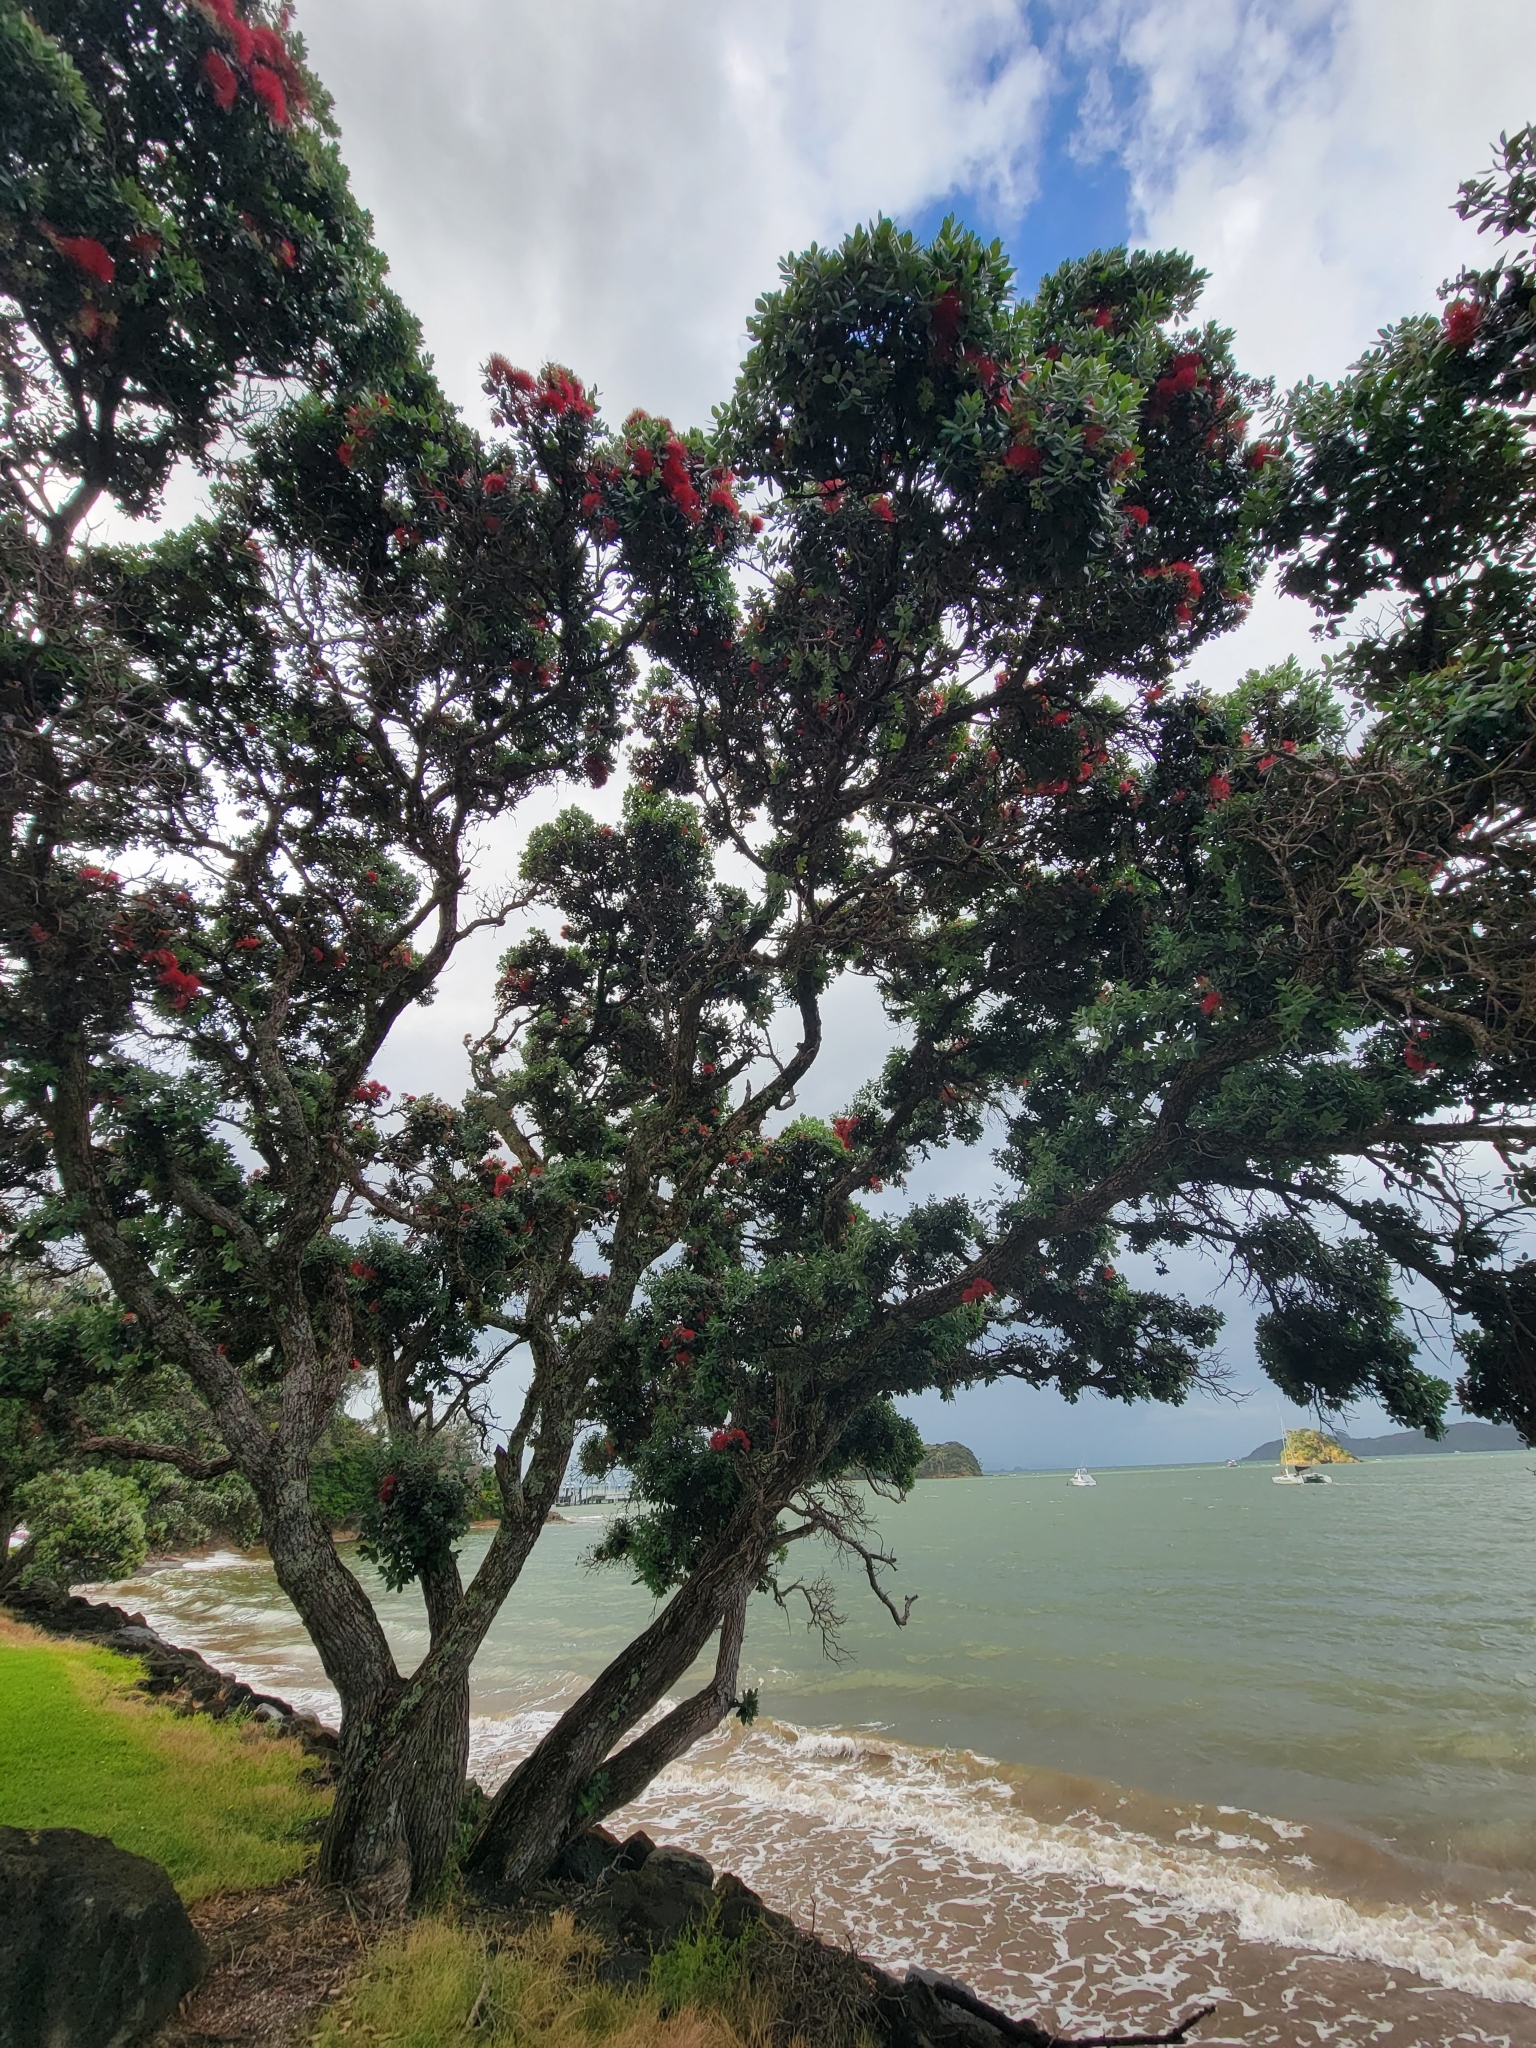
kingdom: Plantae
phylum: Tracheophyta
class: Magnoliopsida
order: Myrtales
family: Myrtaceae
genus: Metrosideros
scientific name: Metrosideros excelsa
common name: New zealand christmastree
